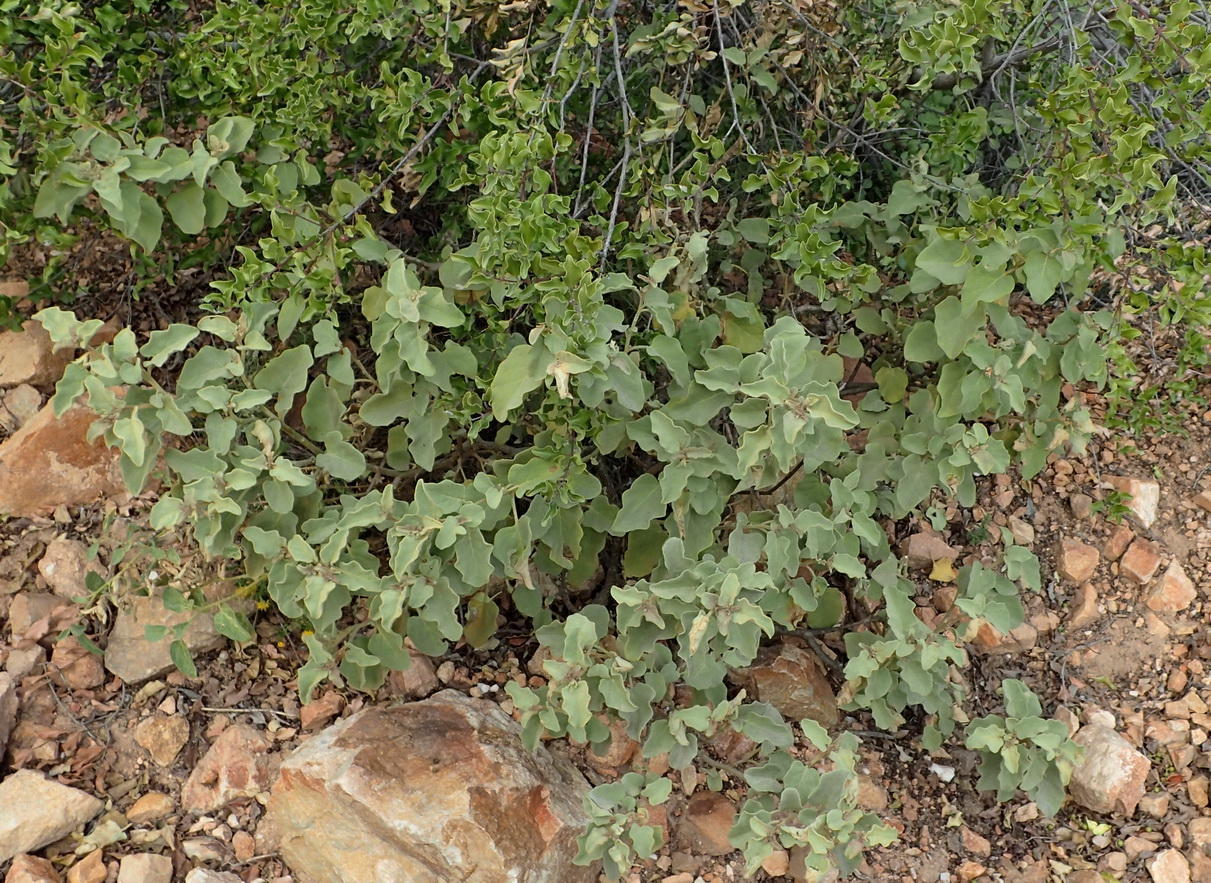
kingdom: Plantae
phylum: Tracheophyta
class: Magnoliopsida
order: Solanales
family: Solanaceae
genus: Solanum
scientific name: Solanum tomentosum
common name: Wild aubergine
